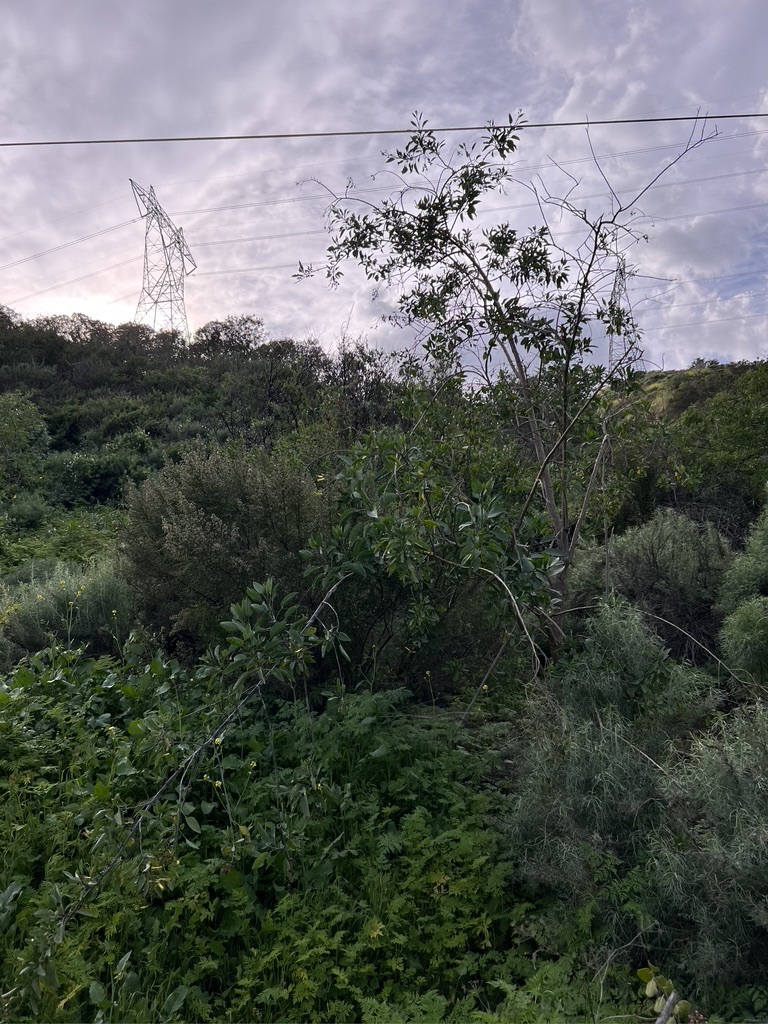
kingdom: Plantae
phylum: Tracheophyta
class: Magnoliopsida
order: Solanales
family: Solanaceae
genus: Nicotiana
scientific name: Nicotiana glauca
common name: Tree tobacco
